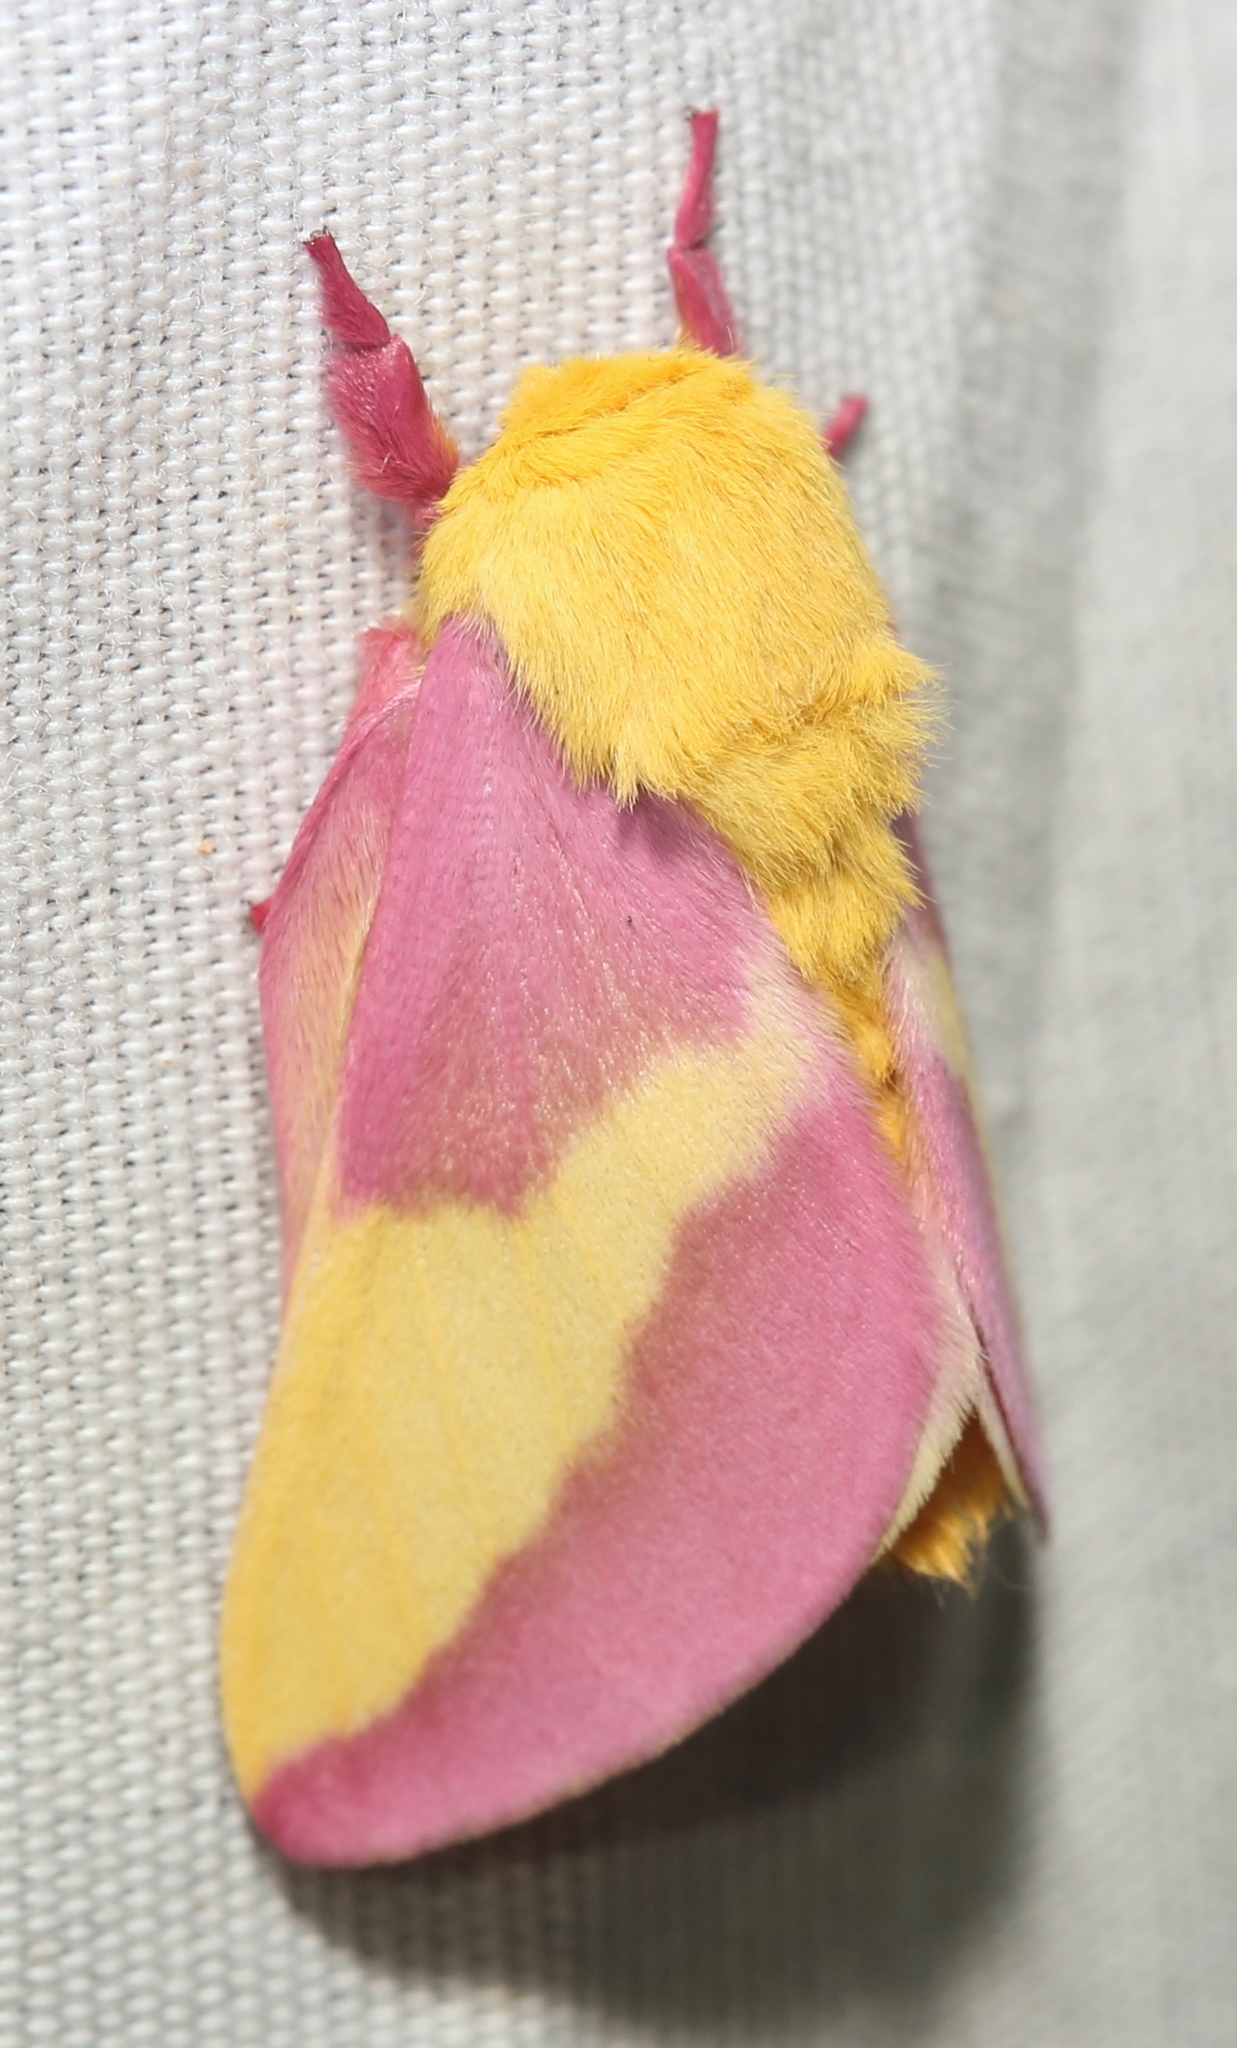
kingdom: Animalia
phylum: Arthropoda
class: Insecta
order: Lepidoptera
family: Saturniidae
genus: Dryocampa
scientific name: Dryocampa rubicunda
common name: Rosy maple moth
